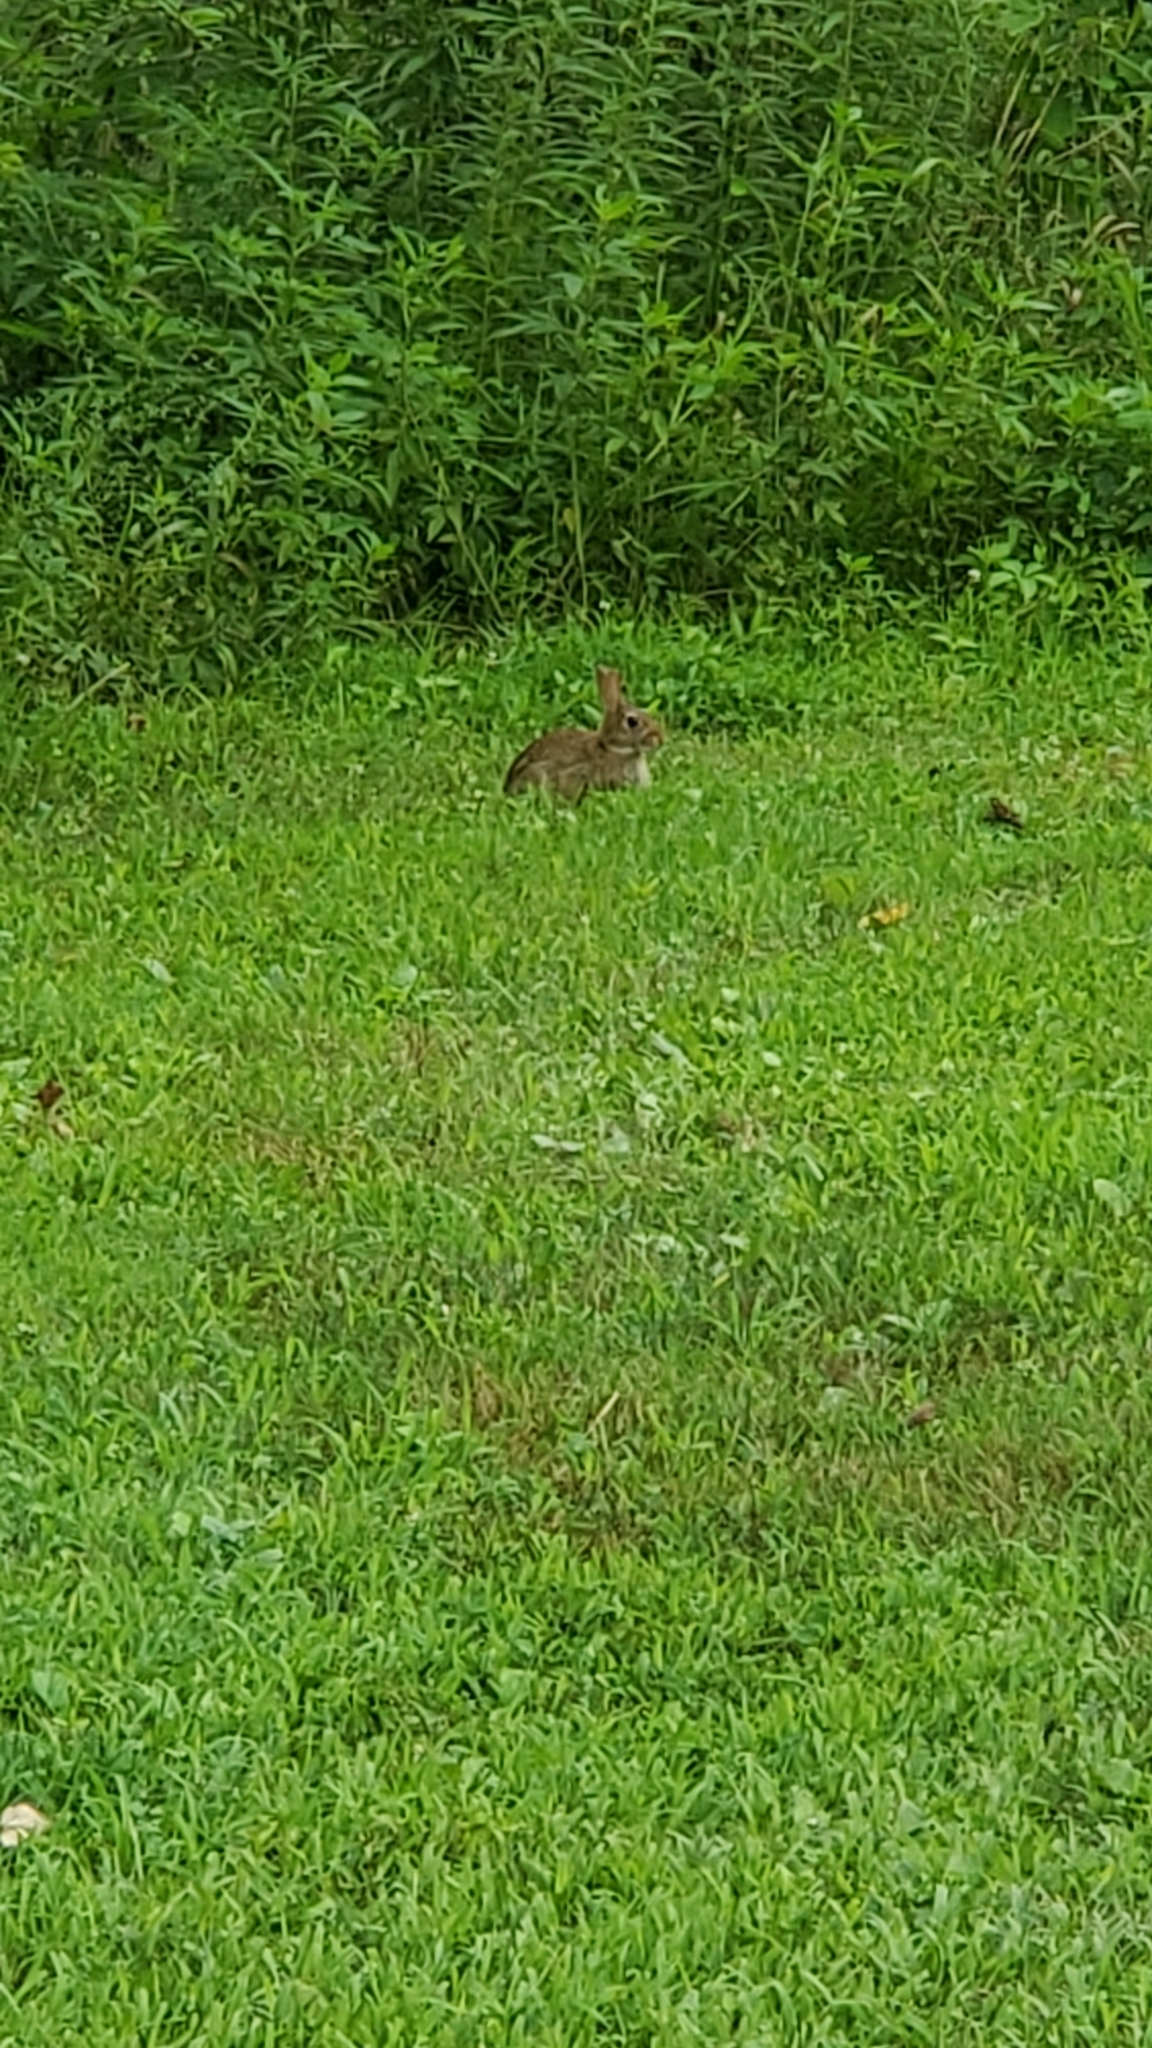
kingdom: Animalia
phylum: Chordata
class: Mammalia
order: Lagomorpha
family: Leporidae
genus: Sylvilagus
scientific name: Sylvilagus floridanus
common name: Eastern cottontail
